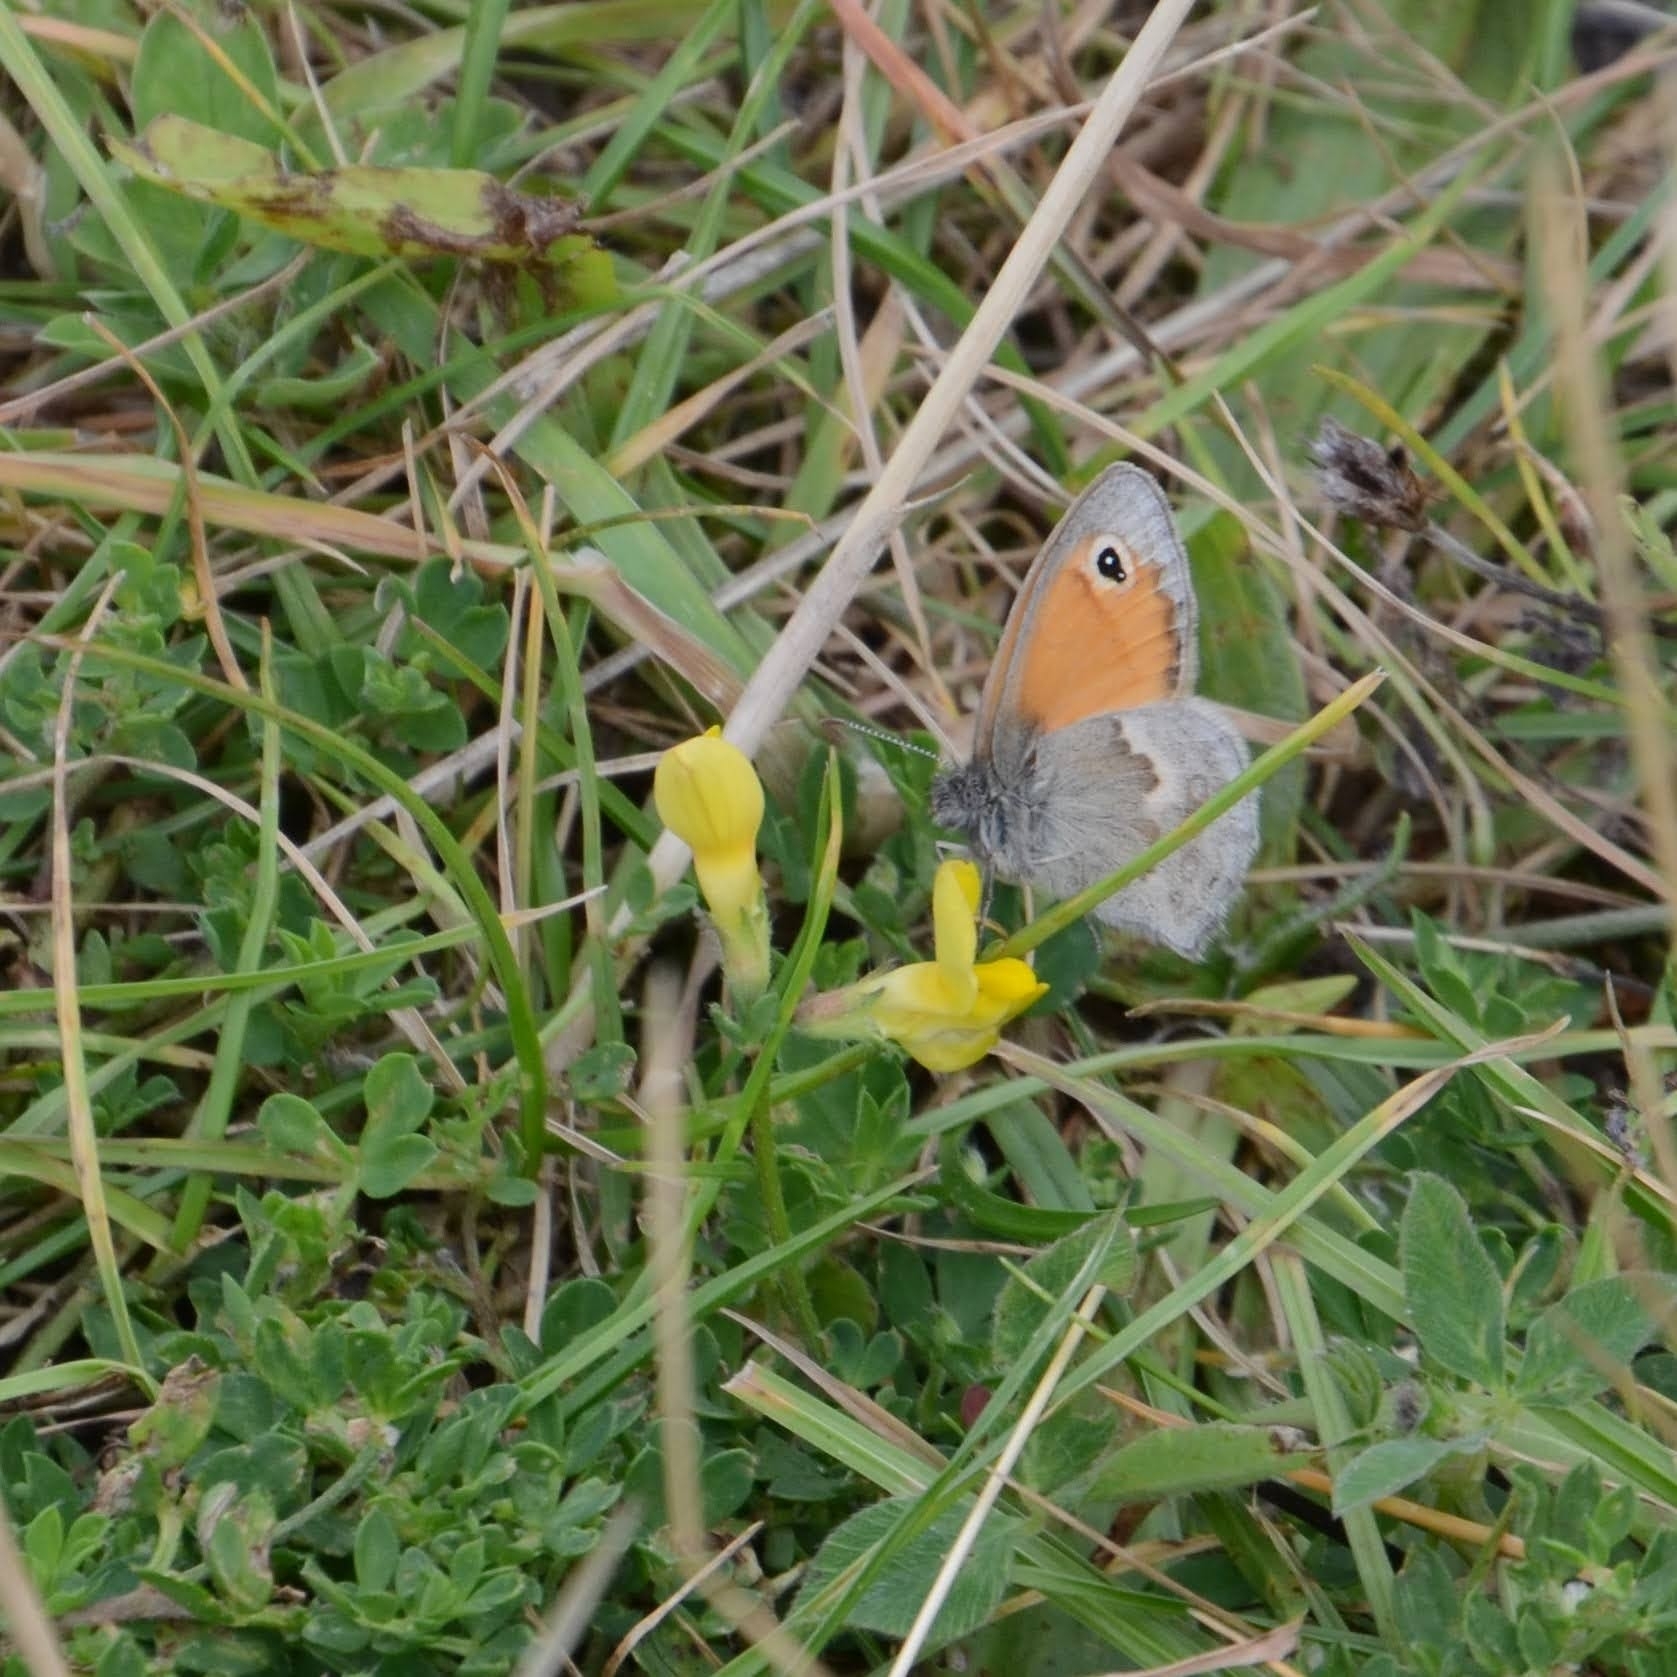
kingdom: Animalia
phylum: Arthropoda
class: Insecta
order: Lepidoptera
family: Nymphalidae
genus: Coenonympha
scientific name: Coenonympha pamphilus
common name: Small heath
